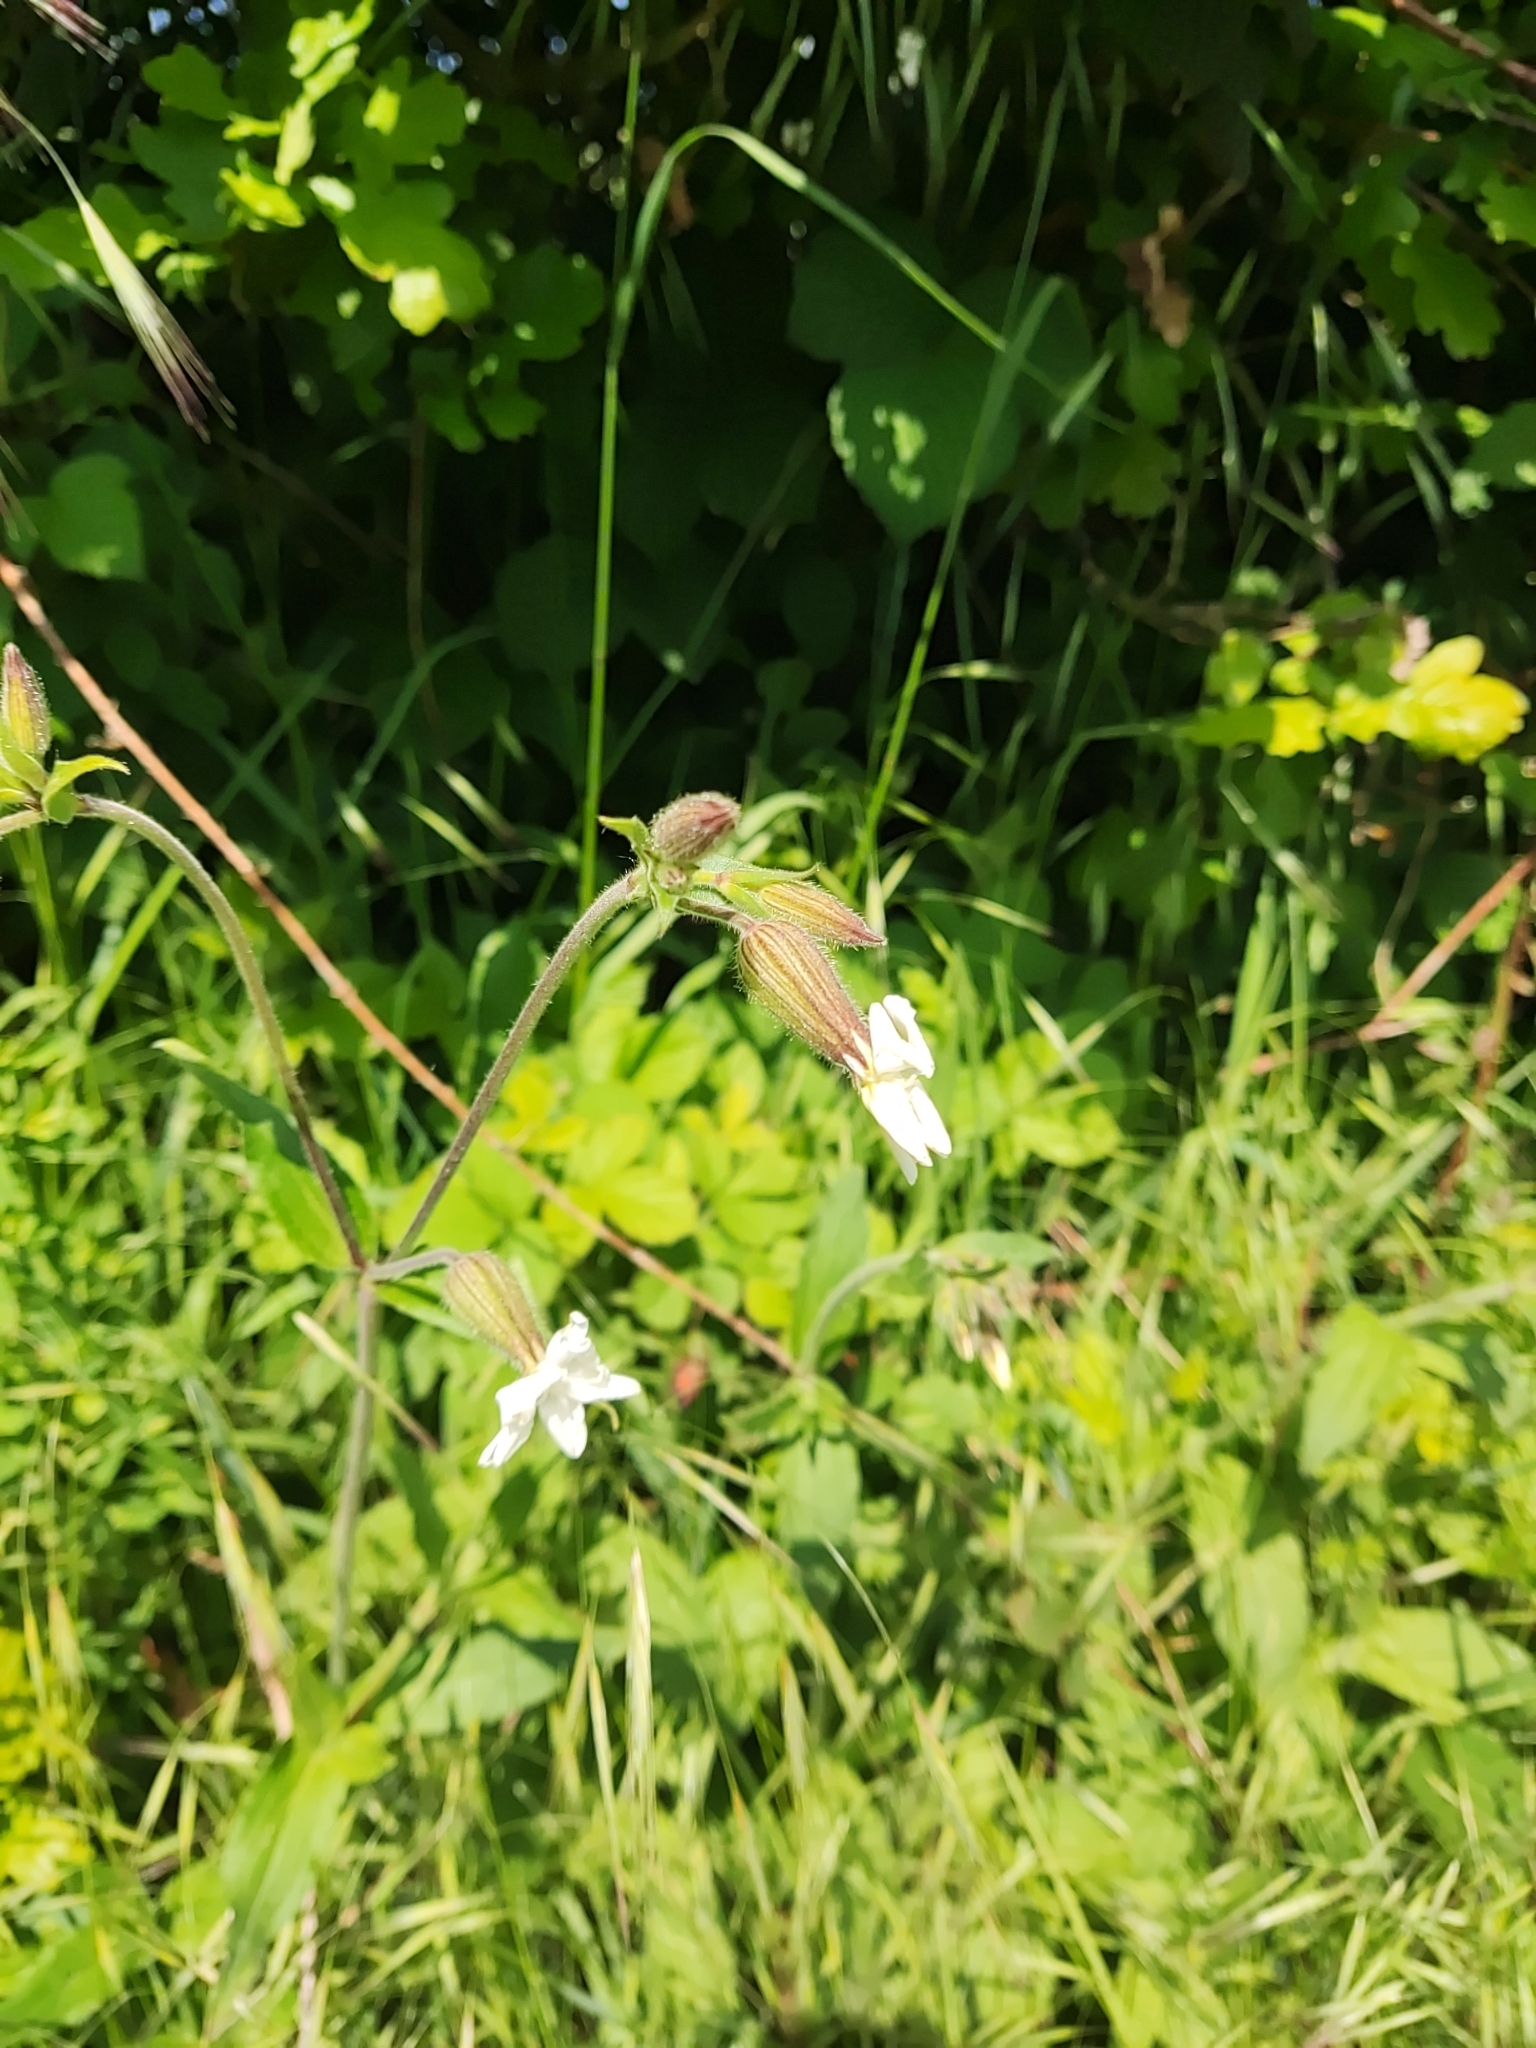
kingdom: Plantae
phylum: Tracheophyta
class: Magnoliopsida
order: Caryophyllales
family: Caryophyllaceae
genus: Silene
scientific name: Silene latifolia
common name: White campion
